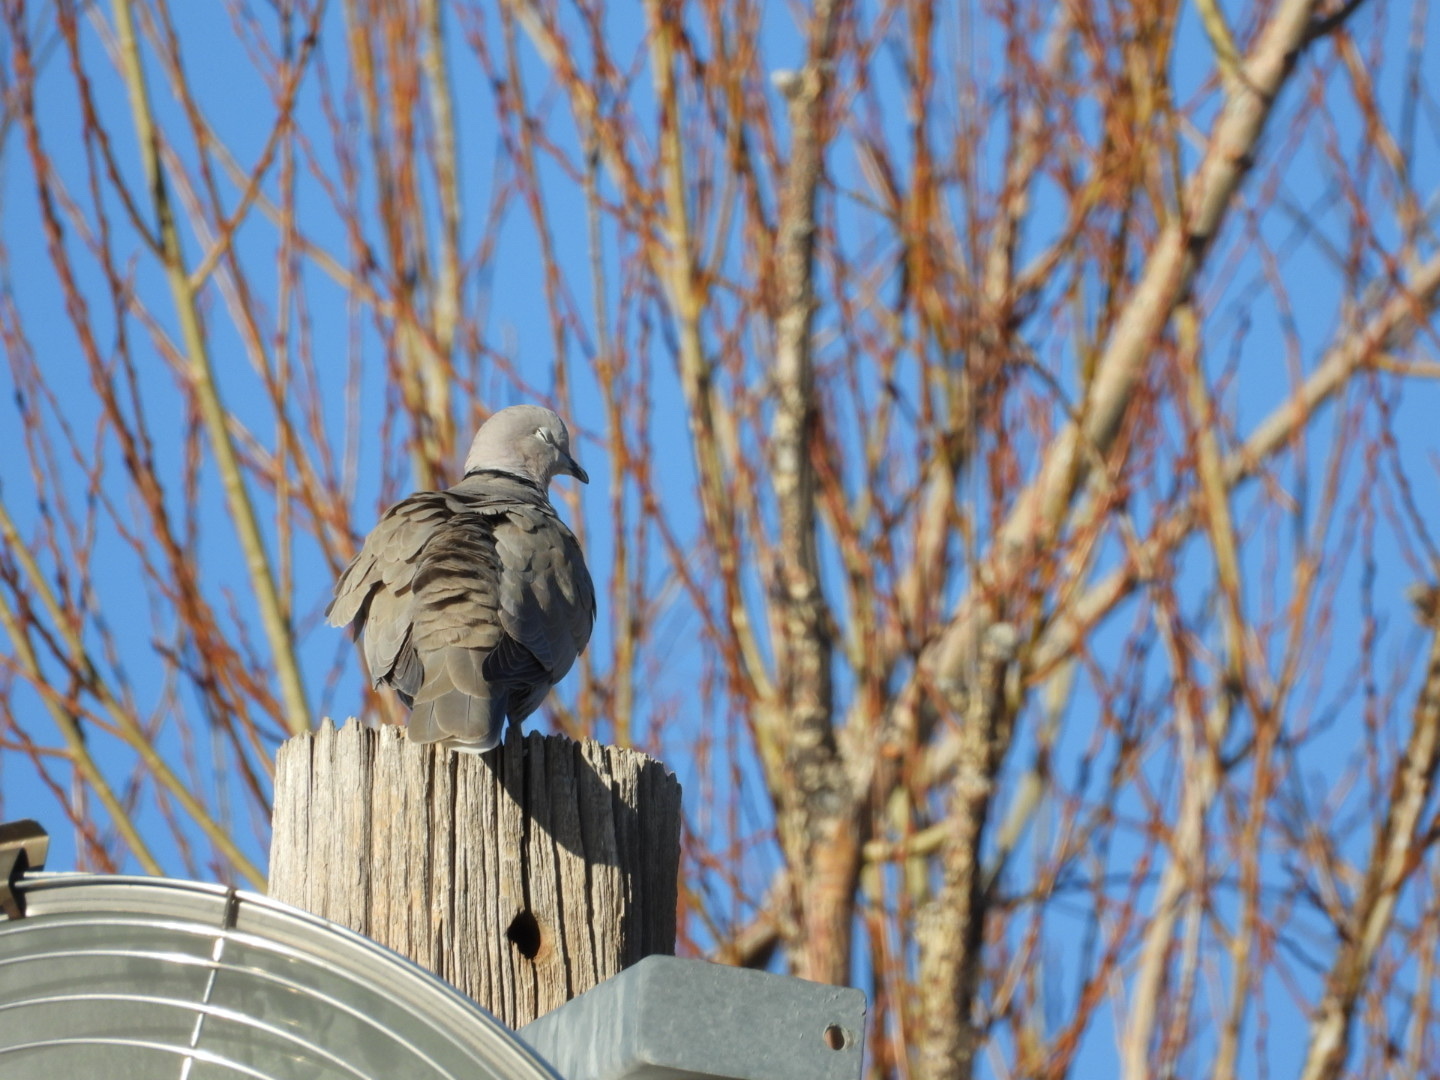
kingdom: Animalia
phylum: Chordata
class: Aves
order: Columbiformes
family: Columbidae
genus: Streptopelia
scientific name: Streptopelia decaocto
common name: Eurasian collared dove
